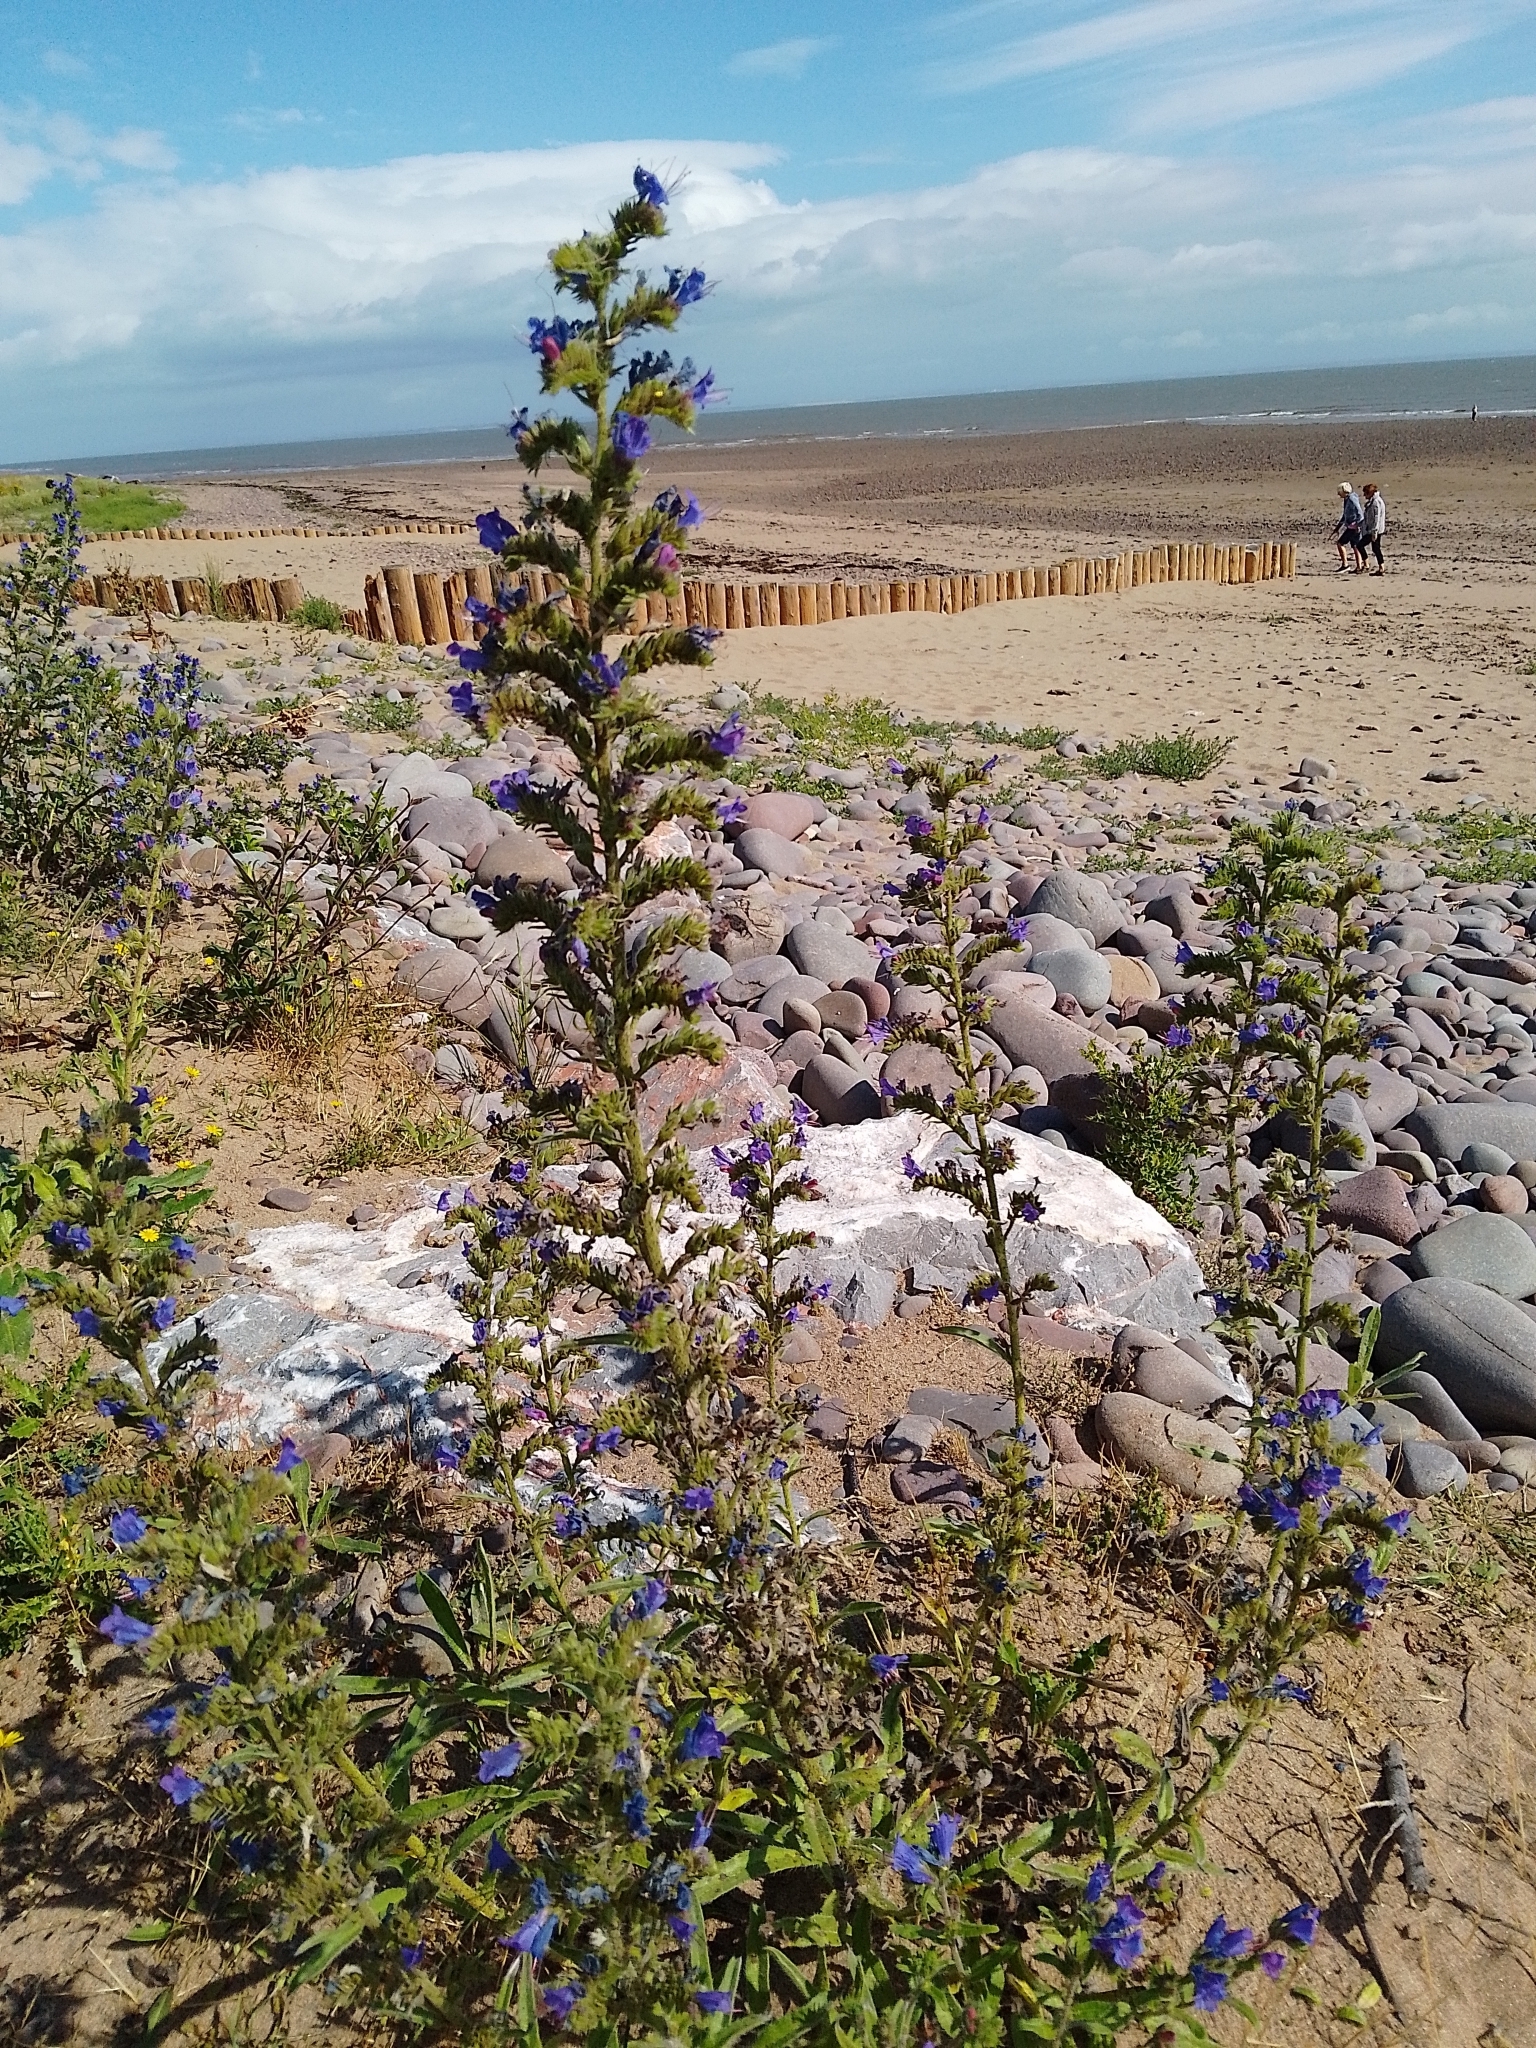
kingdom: Plantae
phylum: Tracheophyta
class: Magnoliopsida
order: Boraginales
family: Boraginaceae
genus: Echium
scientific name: Echium vulgare
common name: Common viper's bugloss
